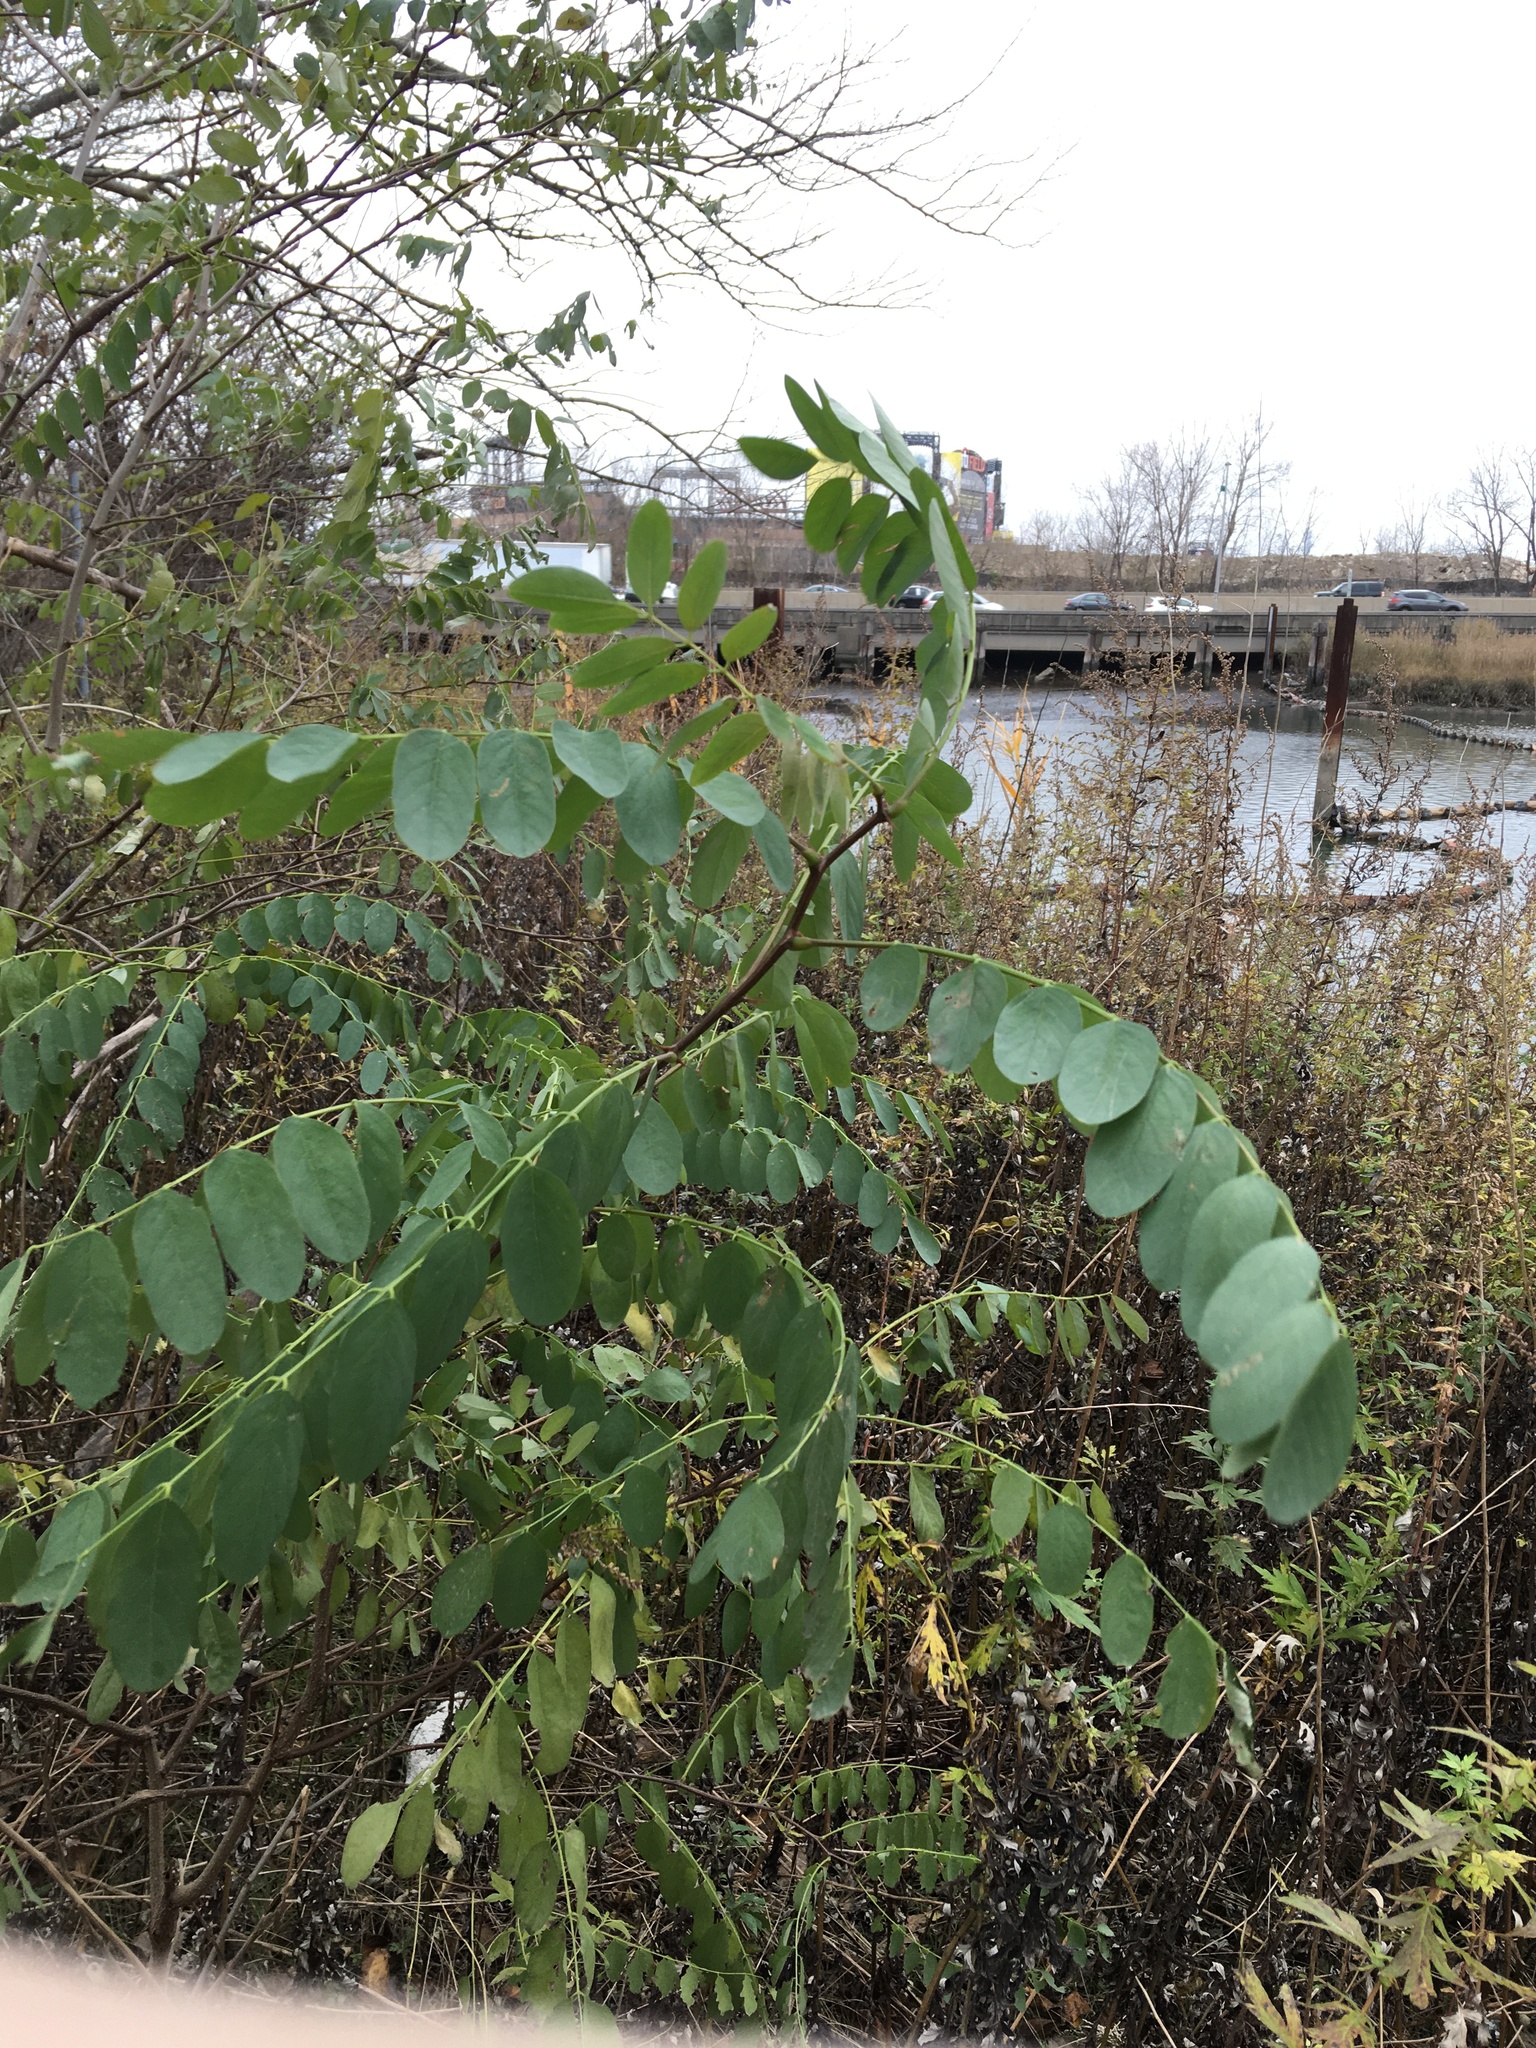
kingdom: Plantae
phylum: Tracheophyta
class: Magnoliopsida
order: Fabales
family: Fabaceae
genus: Robinia
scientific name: Robinia pseudoacacia
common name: Black locust
